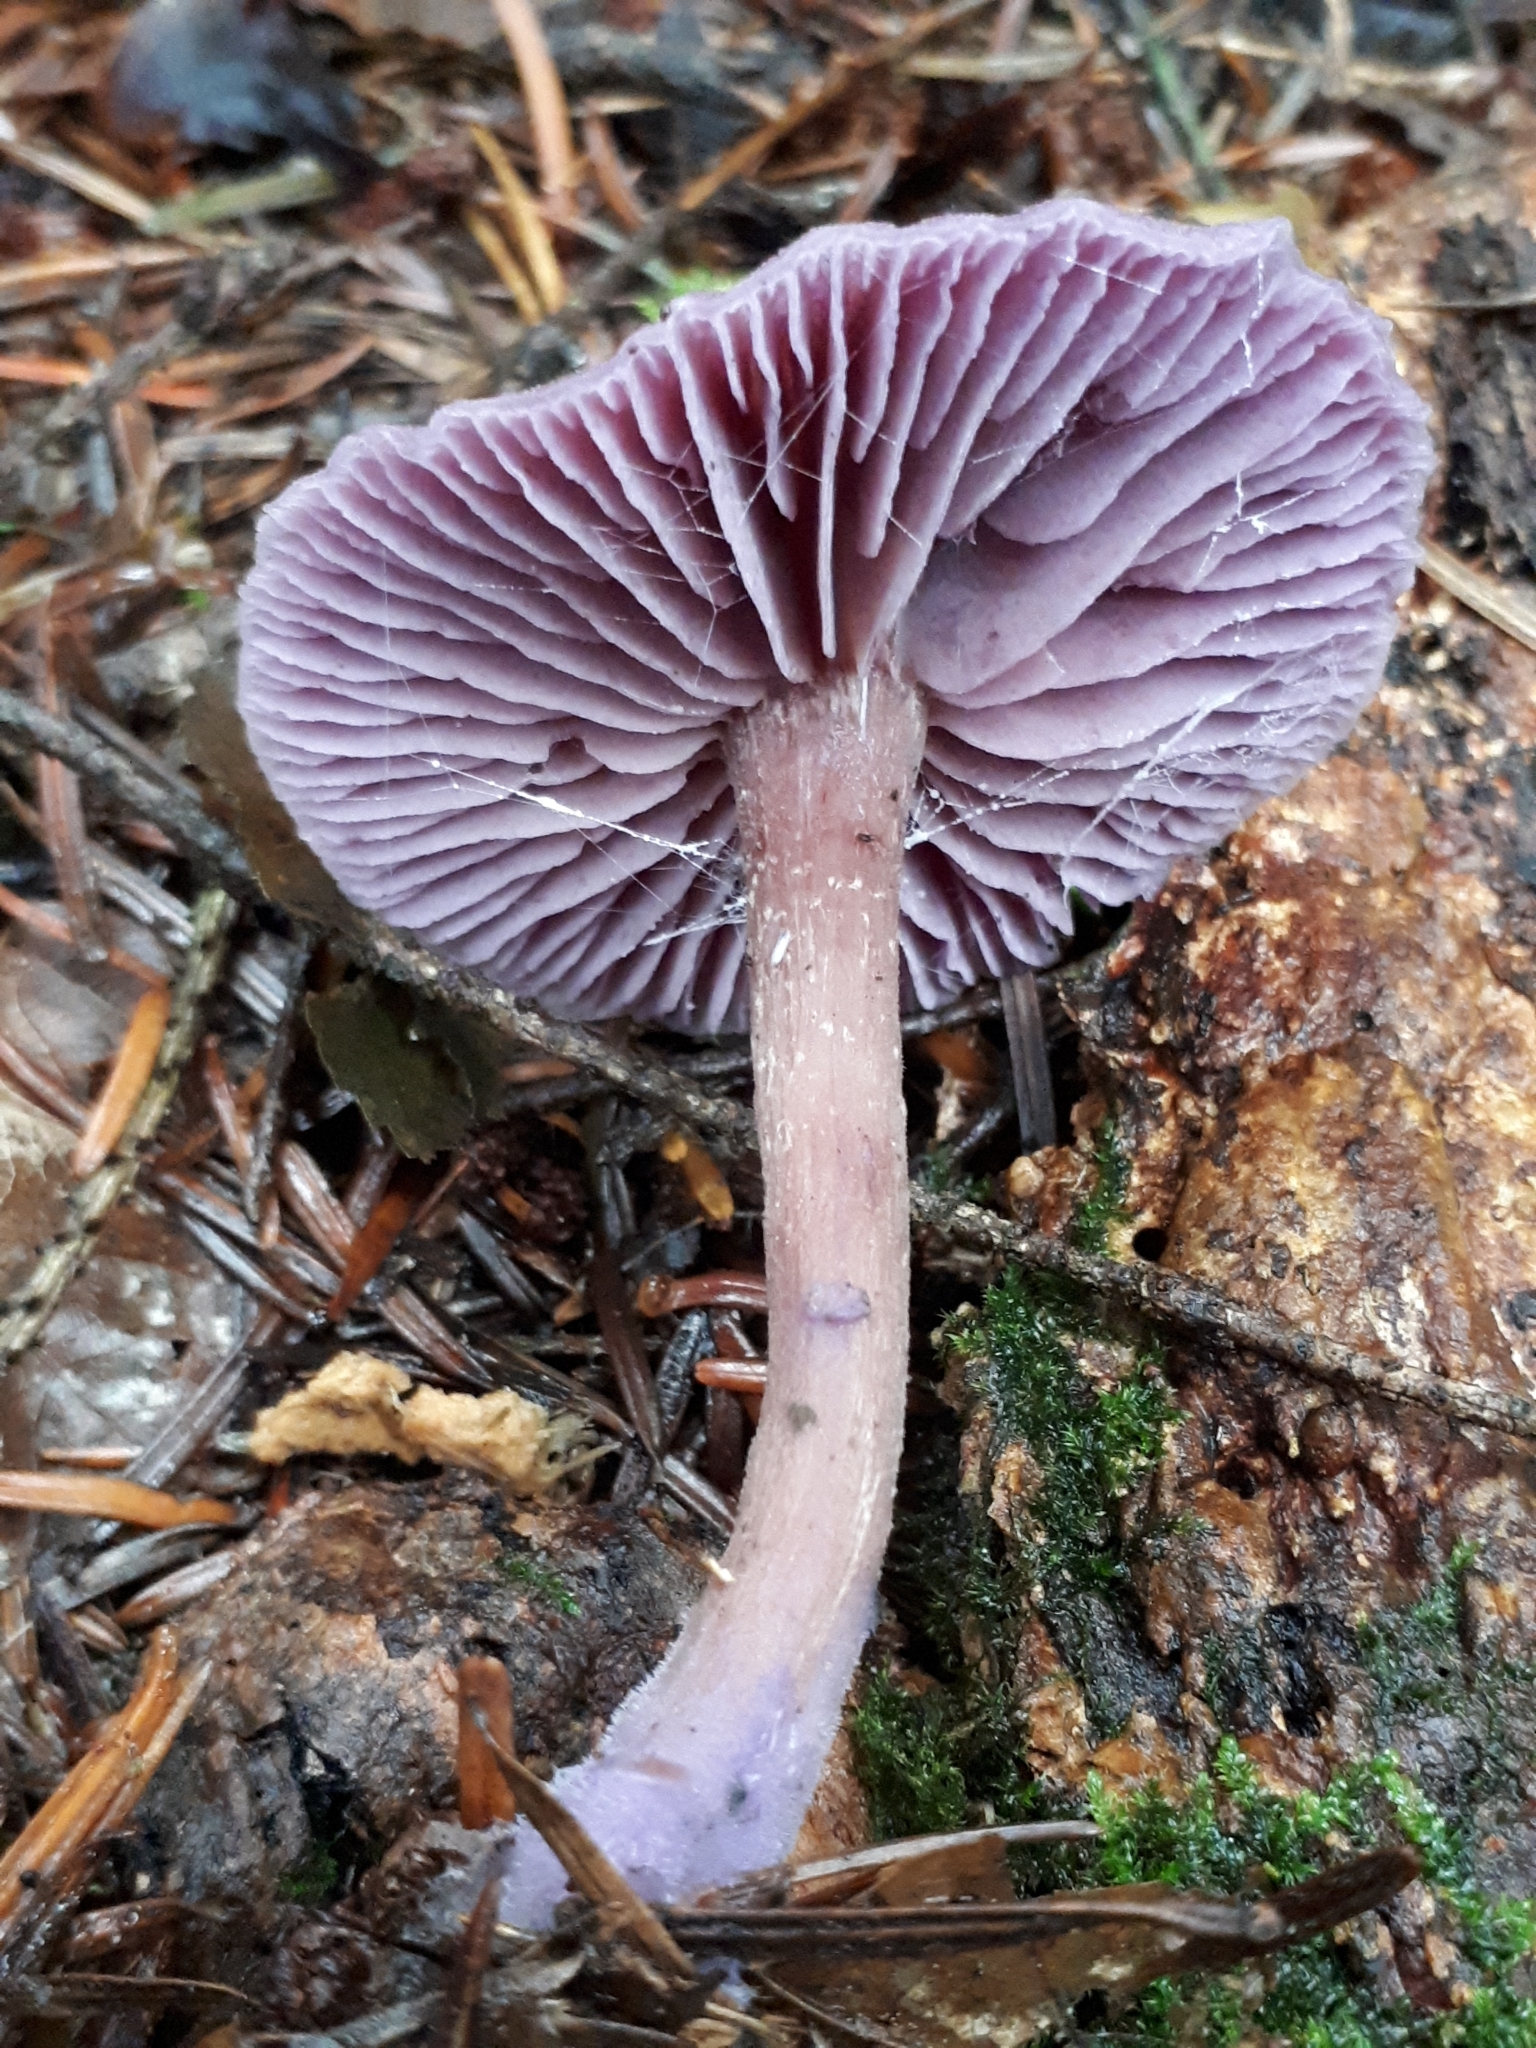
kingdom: Fungi
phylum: Basidiomycota
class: Agaricomycetes
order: Agaricales
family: Hydnangiaceae
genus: Laccaria
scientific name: Laccaria amethystina
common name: Amethyst deceiver
